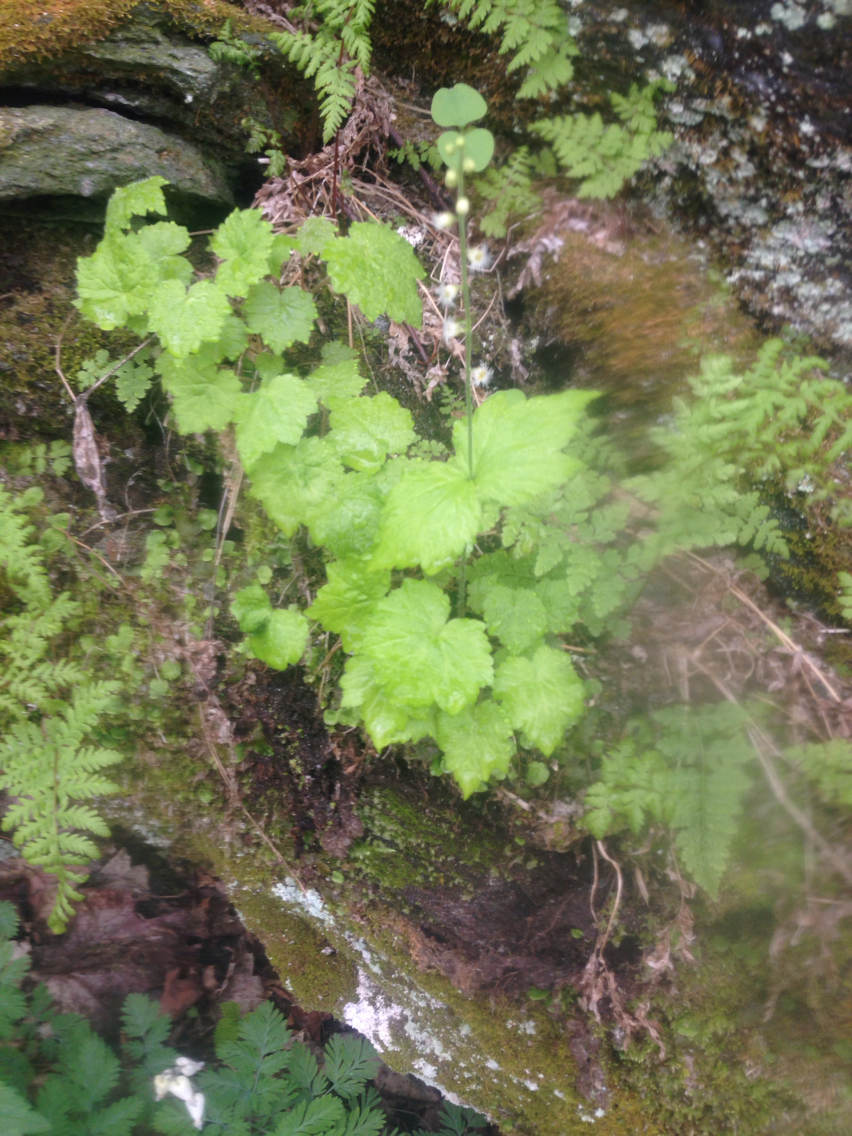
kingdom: Plantae
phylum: Tracheophyta
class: Magnoliopsida
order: Saxifragales
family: Saxifragaceae
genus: Mitella
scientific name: Mitella diphylla
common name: Coolwort
